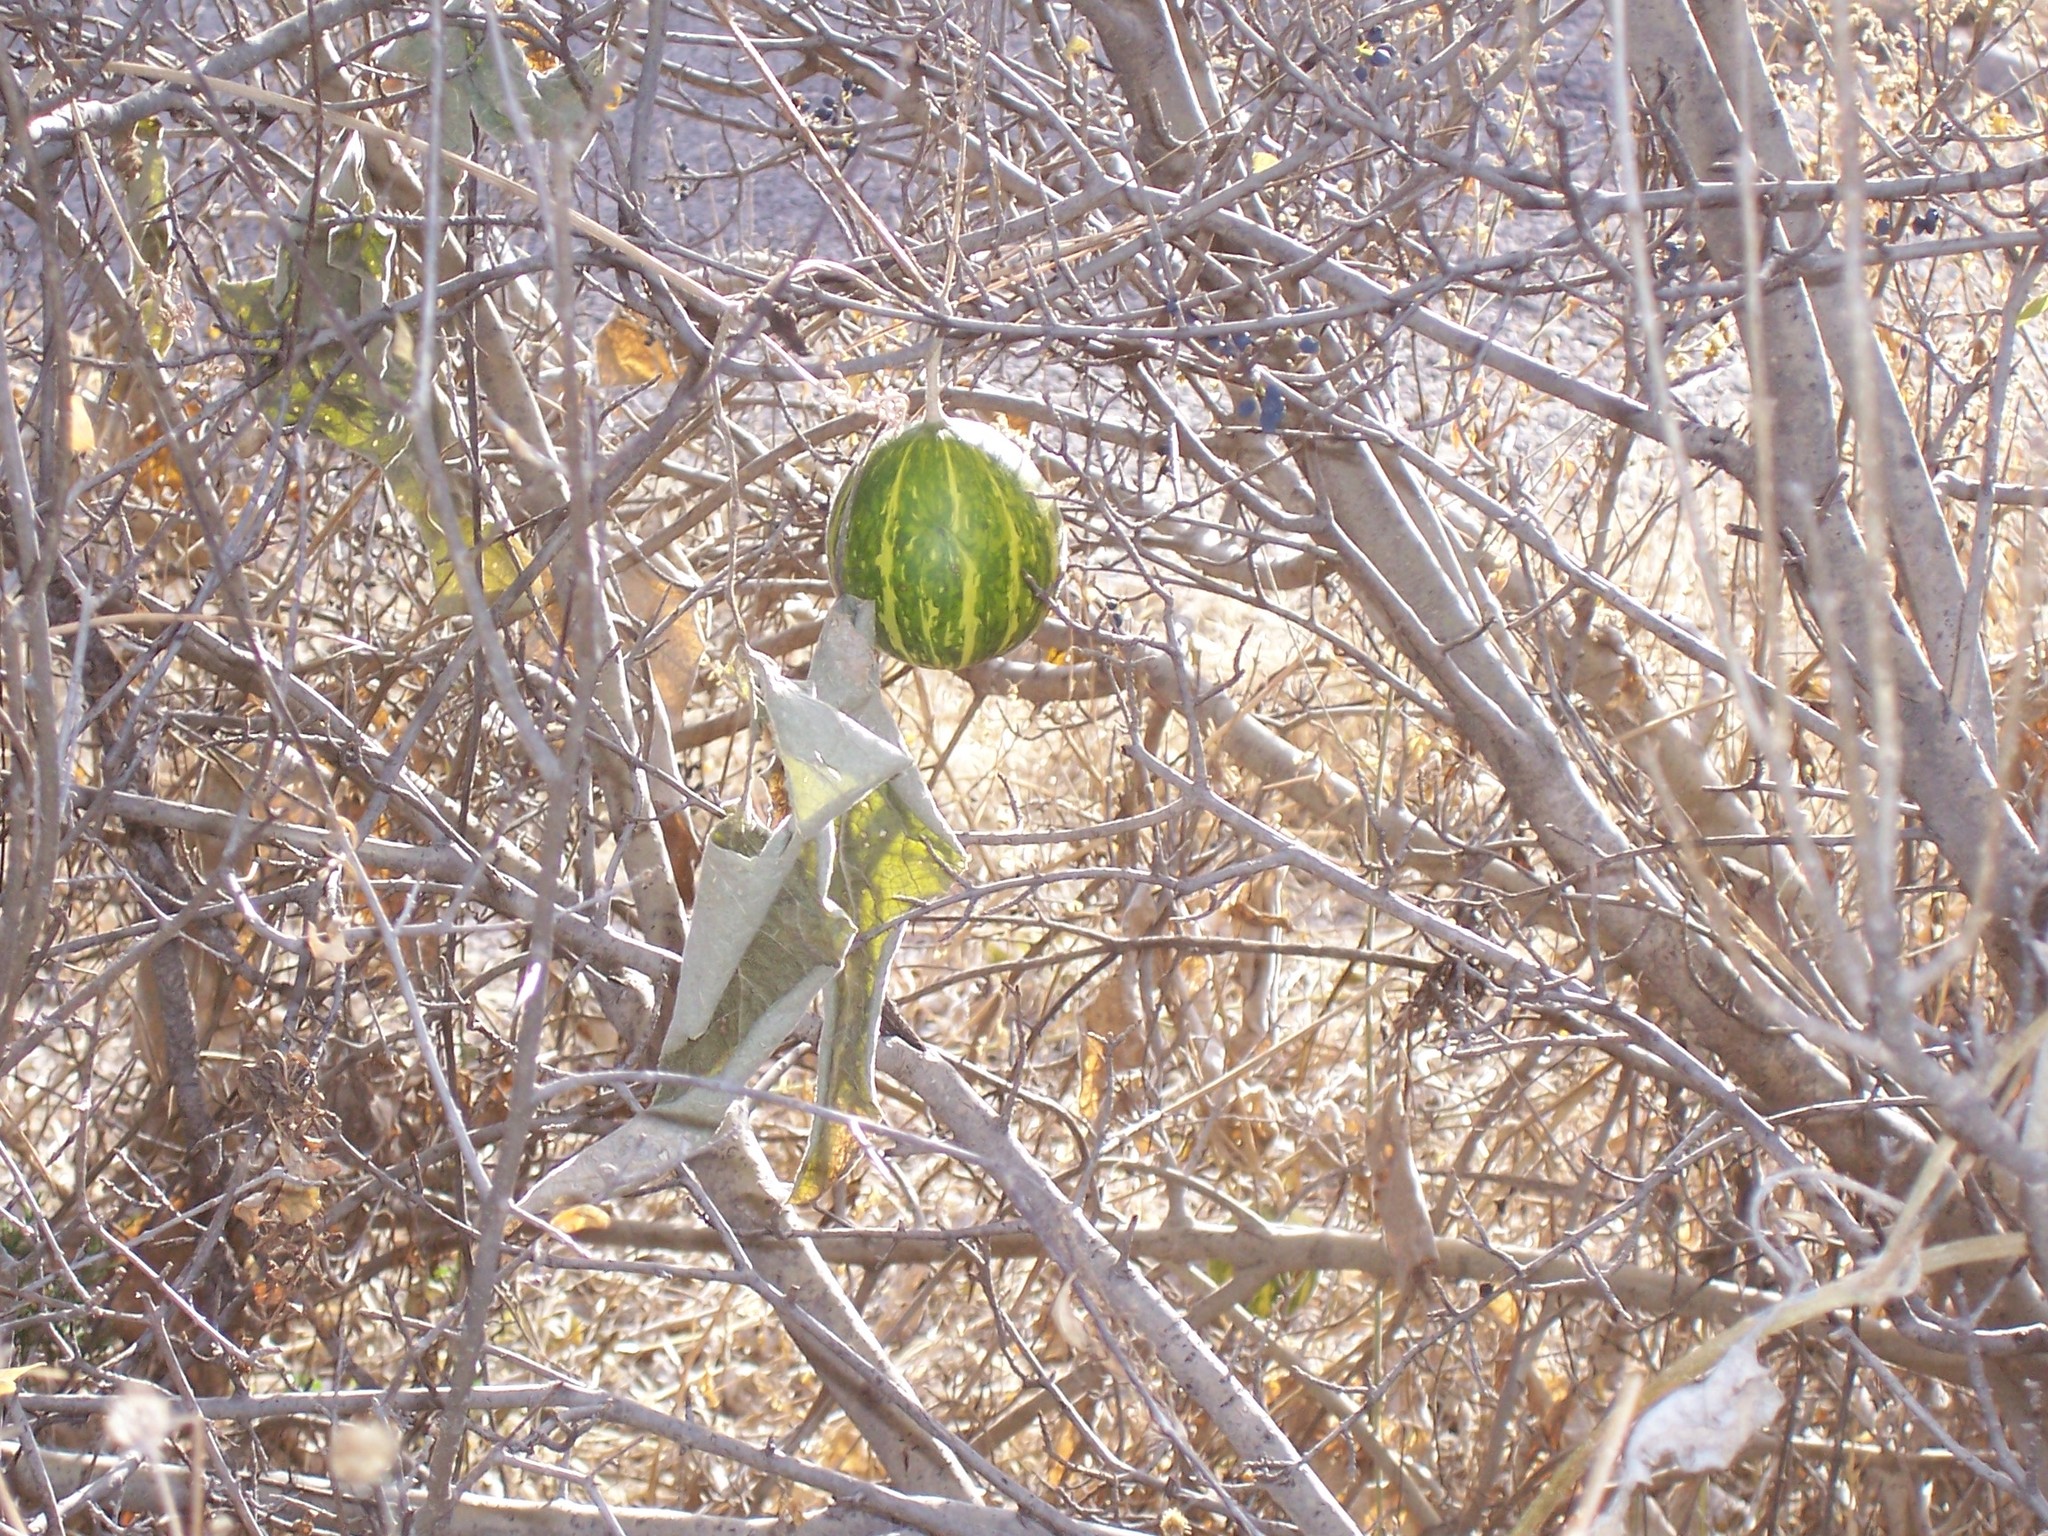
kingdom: Plantae
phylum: Tracheophyta
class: Magnoliopsida
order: Cucurbitales
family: Cucurbitaceae
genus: Cucurbita
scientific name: Cucurbita foetidissima
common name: Buffalo gourd
